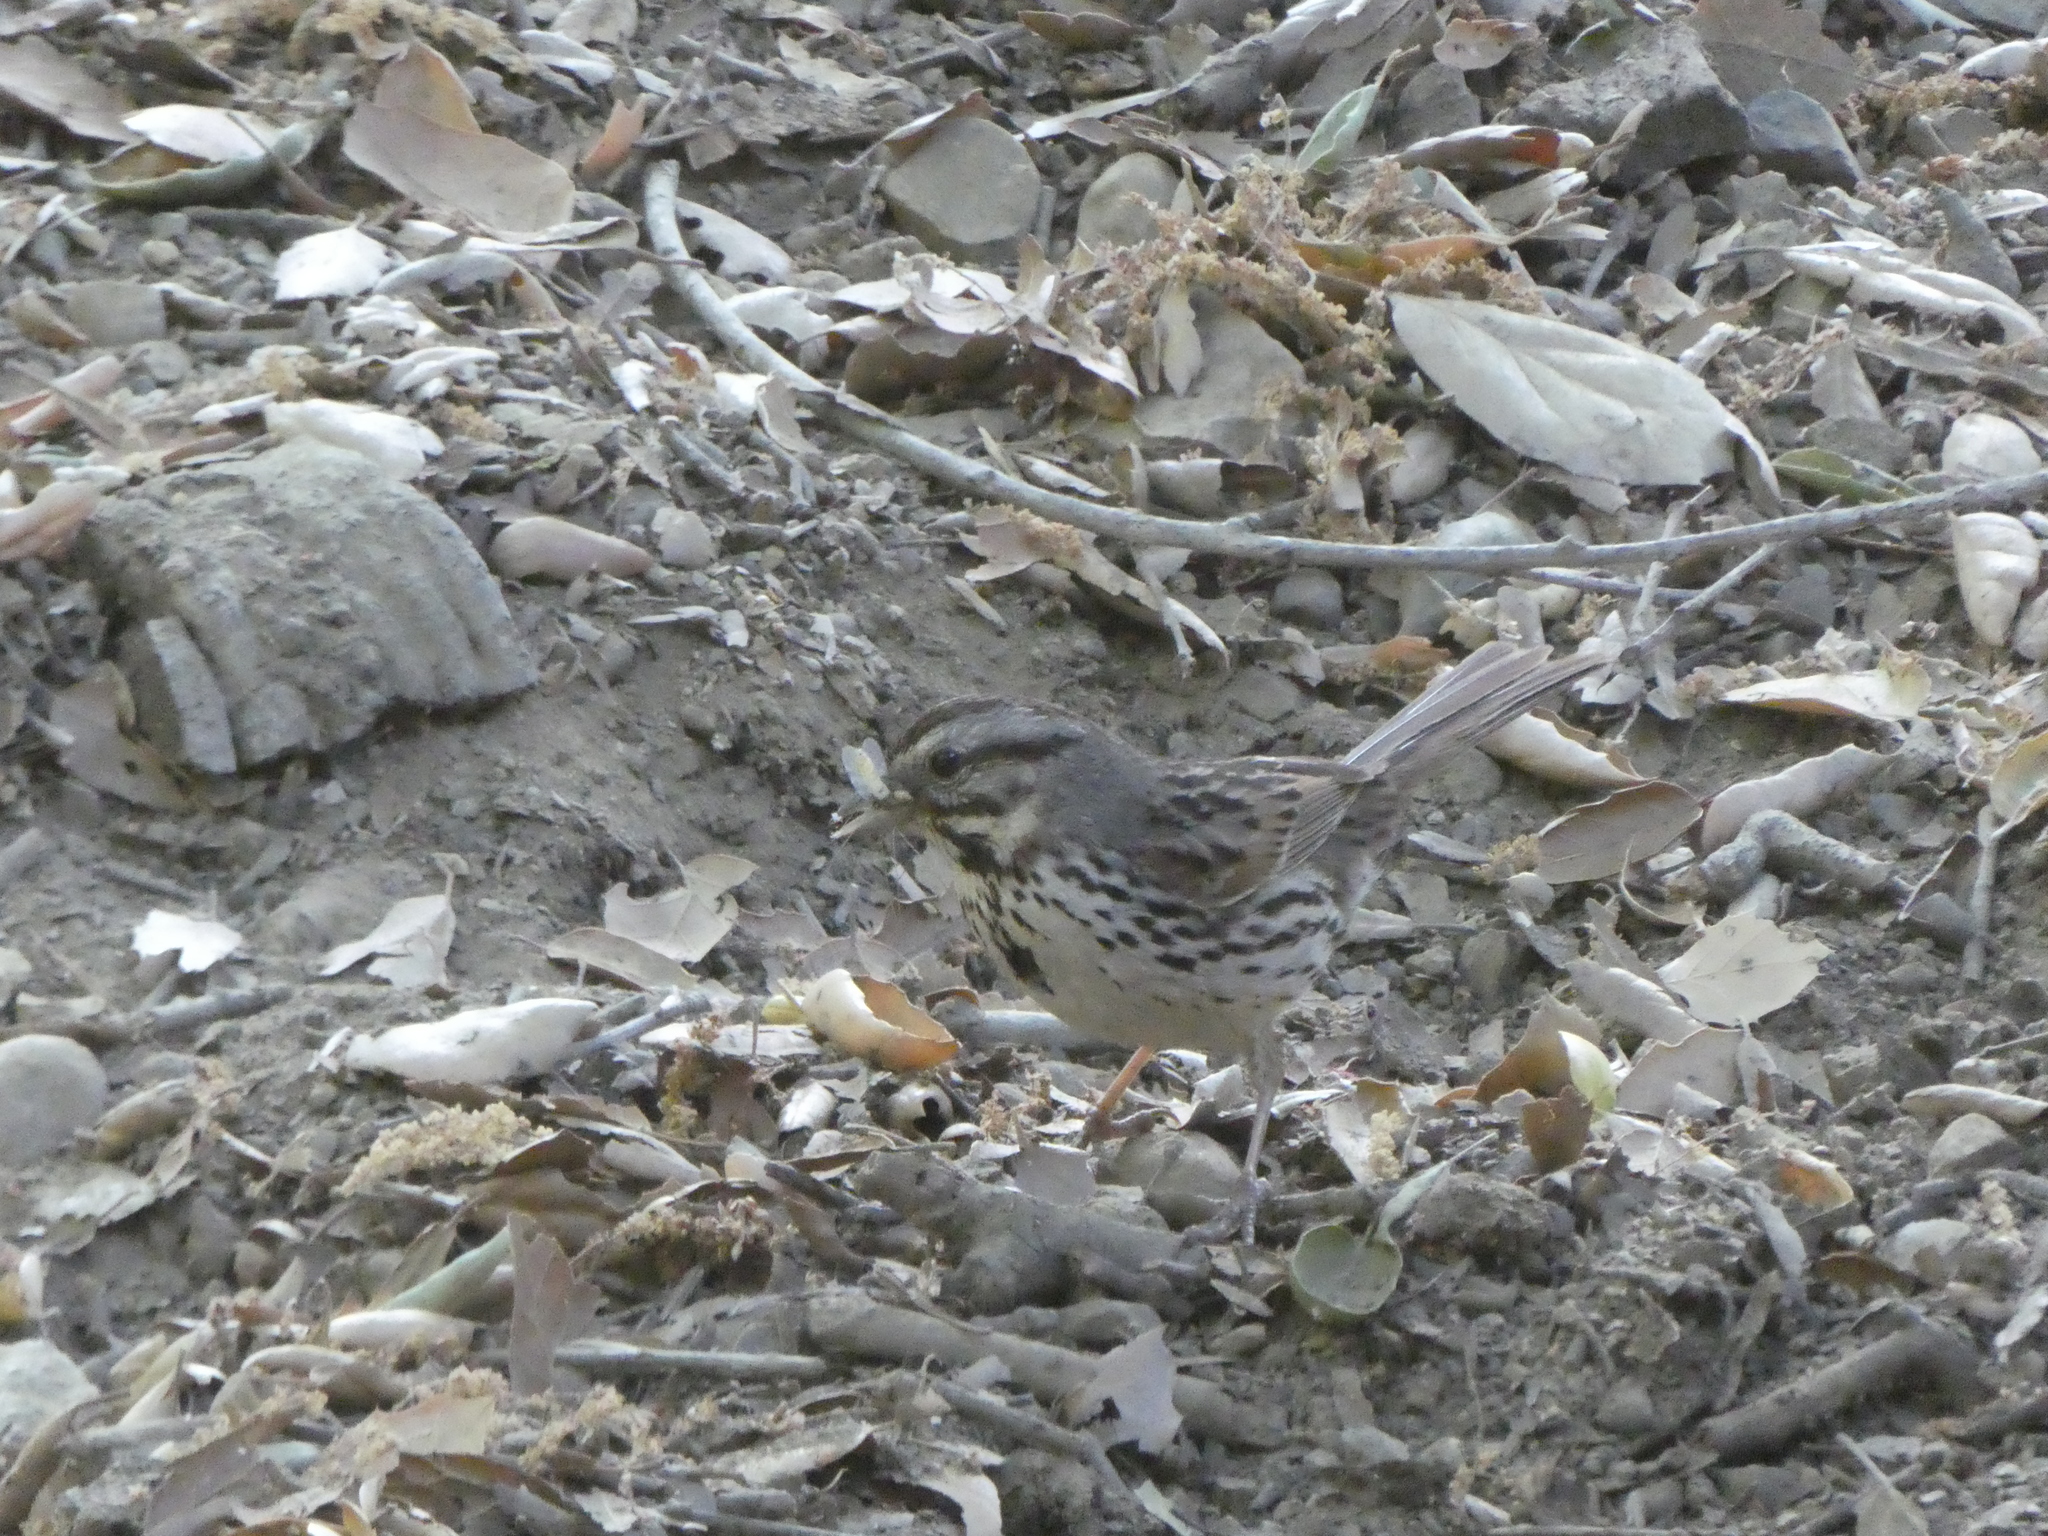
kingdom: Animalia
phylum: Chordata
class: Aves
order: Passeriformes
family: Passerellidae
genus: Melospiza
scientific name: Melospiza melodia
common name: Song sparrow
